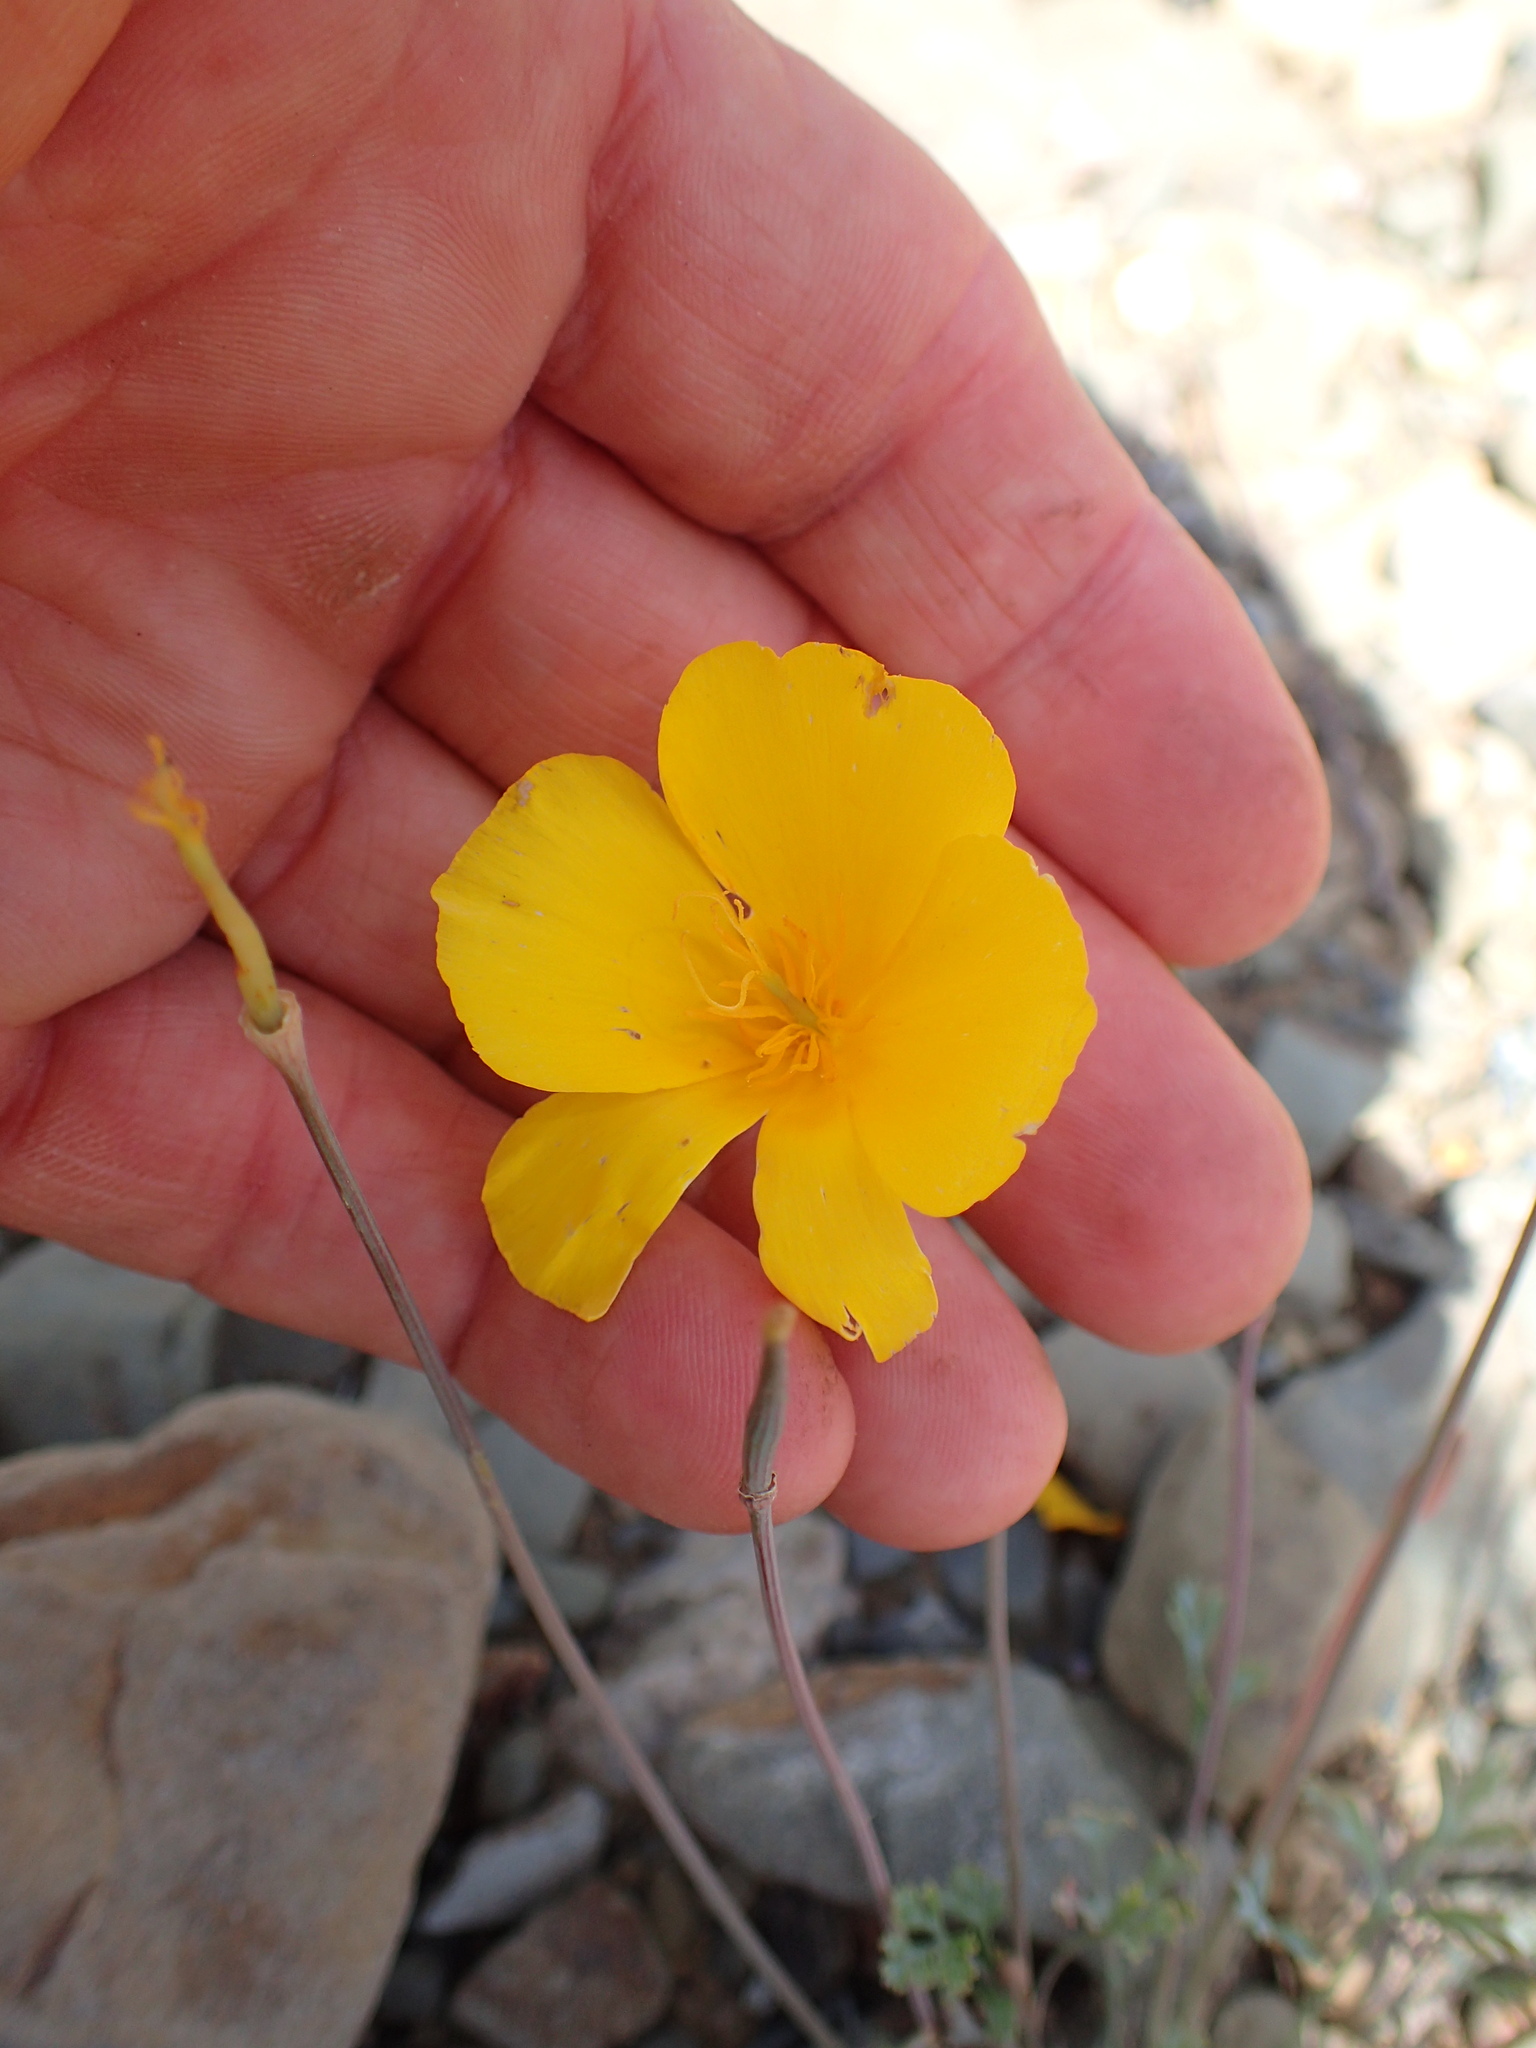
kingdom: Plantae
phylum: Tracheophyta
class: Magnoliopsida
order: Ranunculales
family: Papaveraceae
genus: Eschscholzia
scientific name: Eschscholzia caespitosa
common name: Tufted california-poppy
